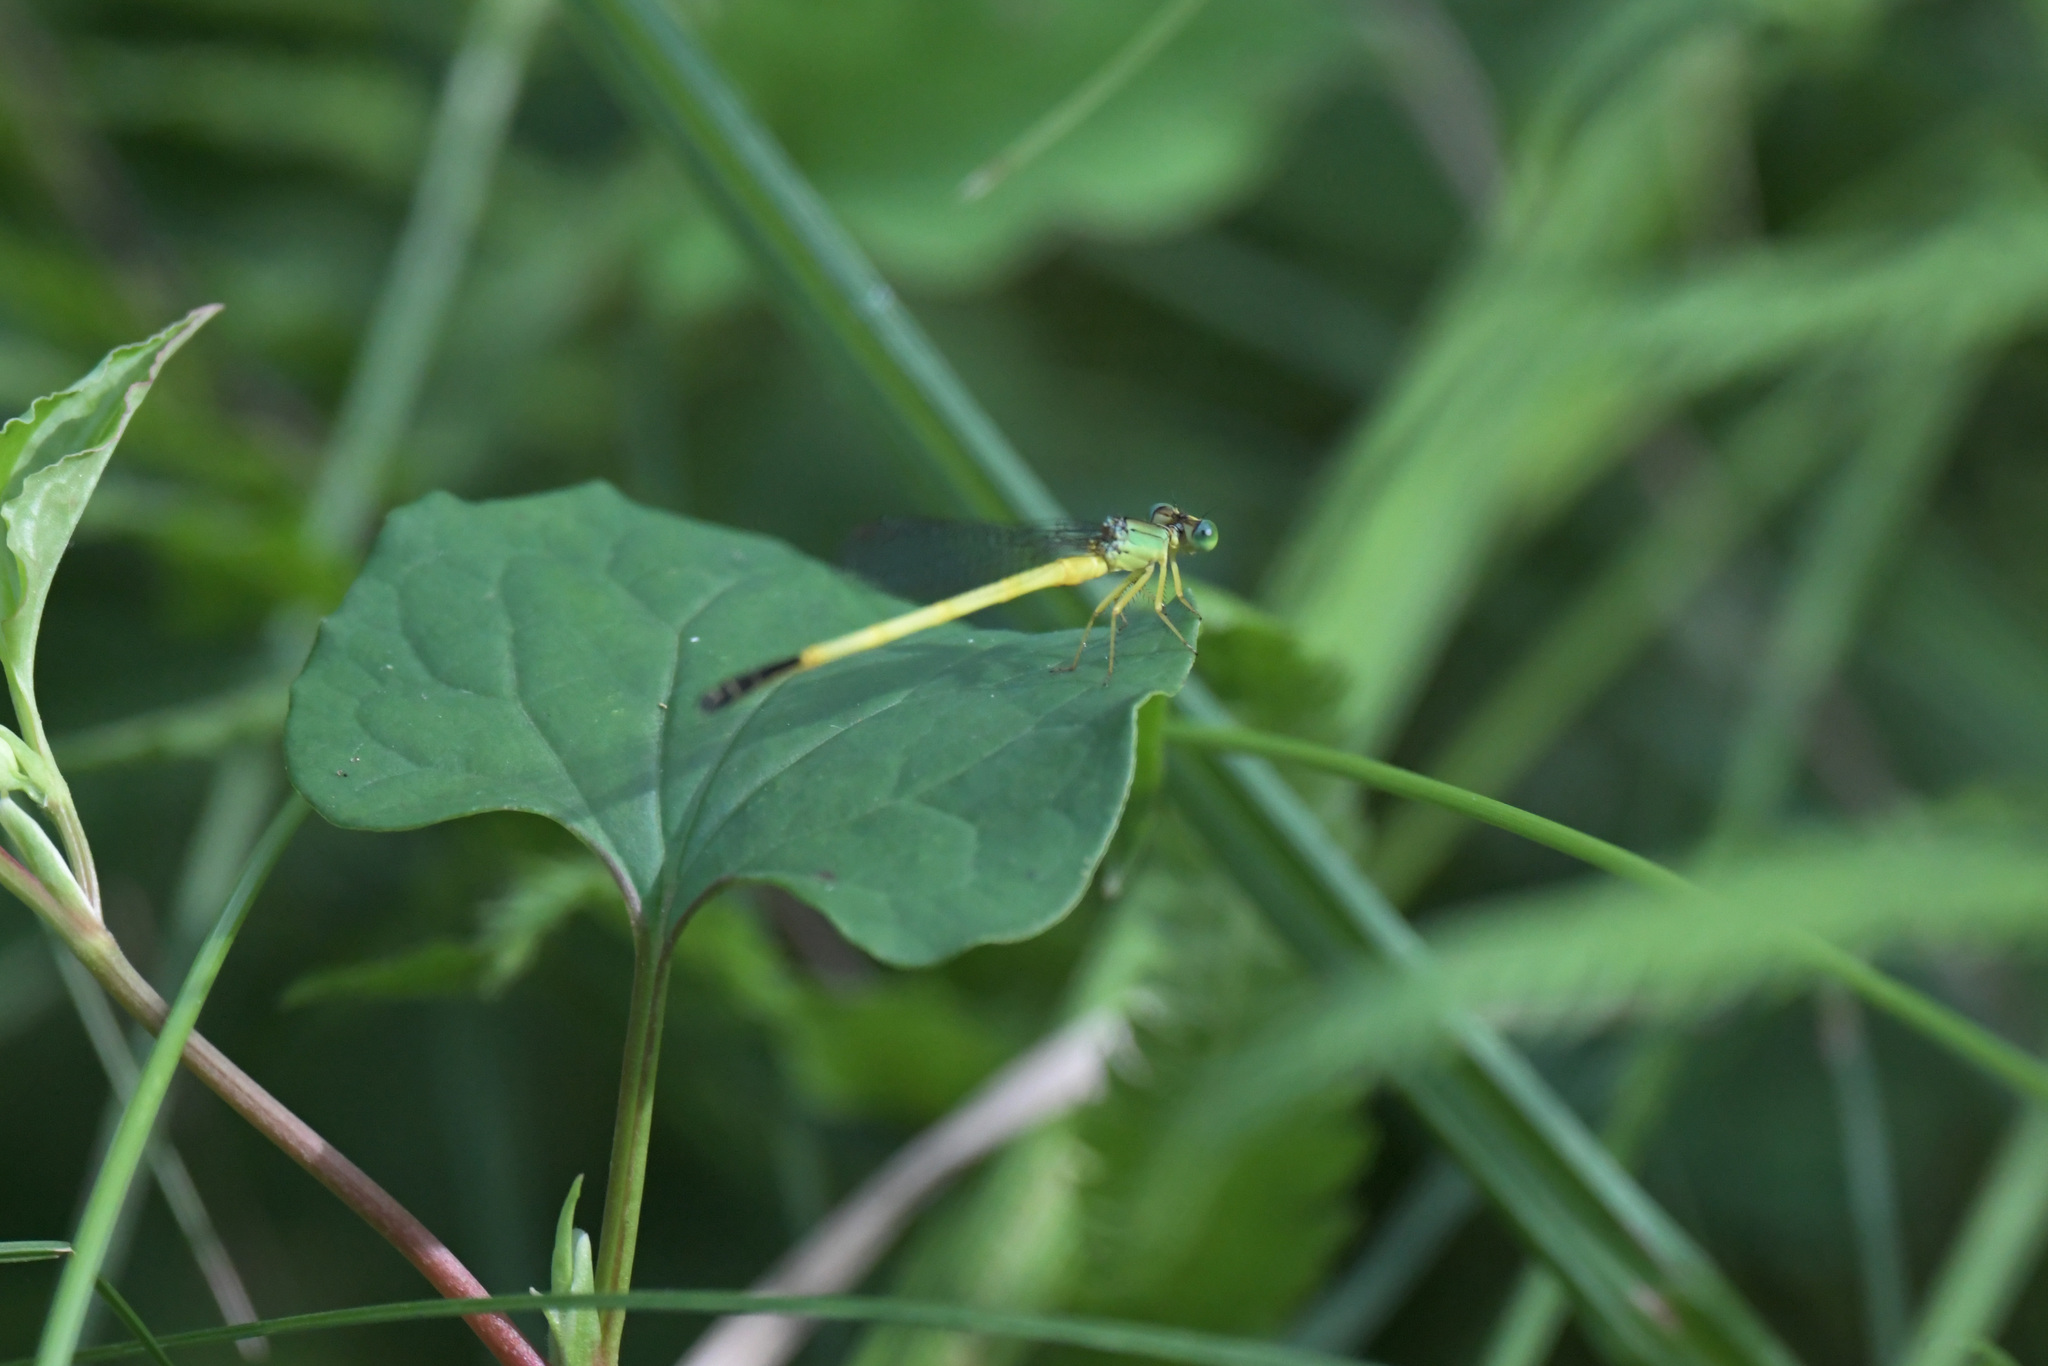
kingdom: Animalia
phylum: Arthropoda
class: Insecta
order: Odonata
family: Coenagrionidae
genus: Ceriagrion
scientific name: Ceriagrion fallax
